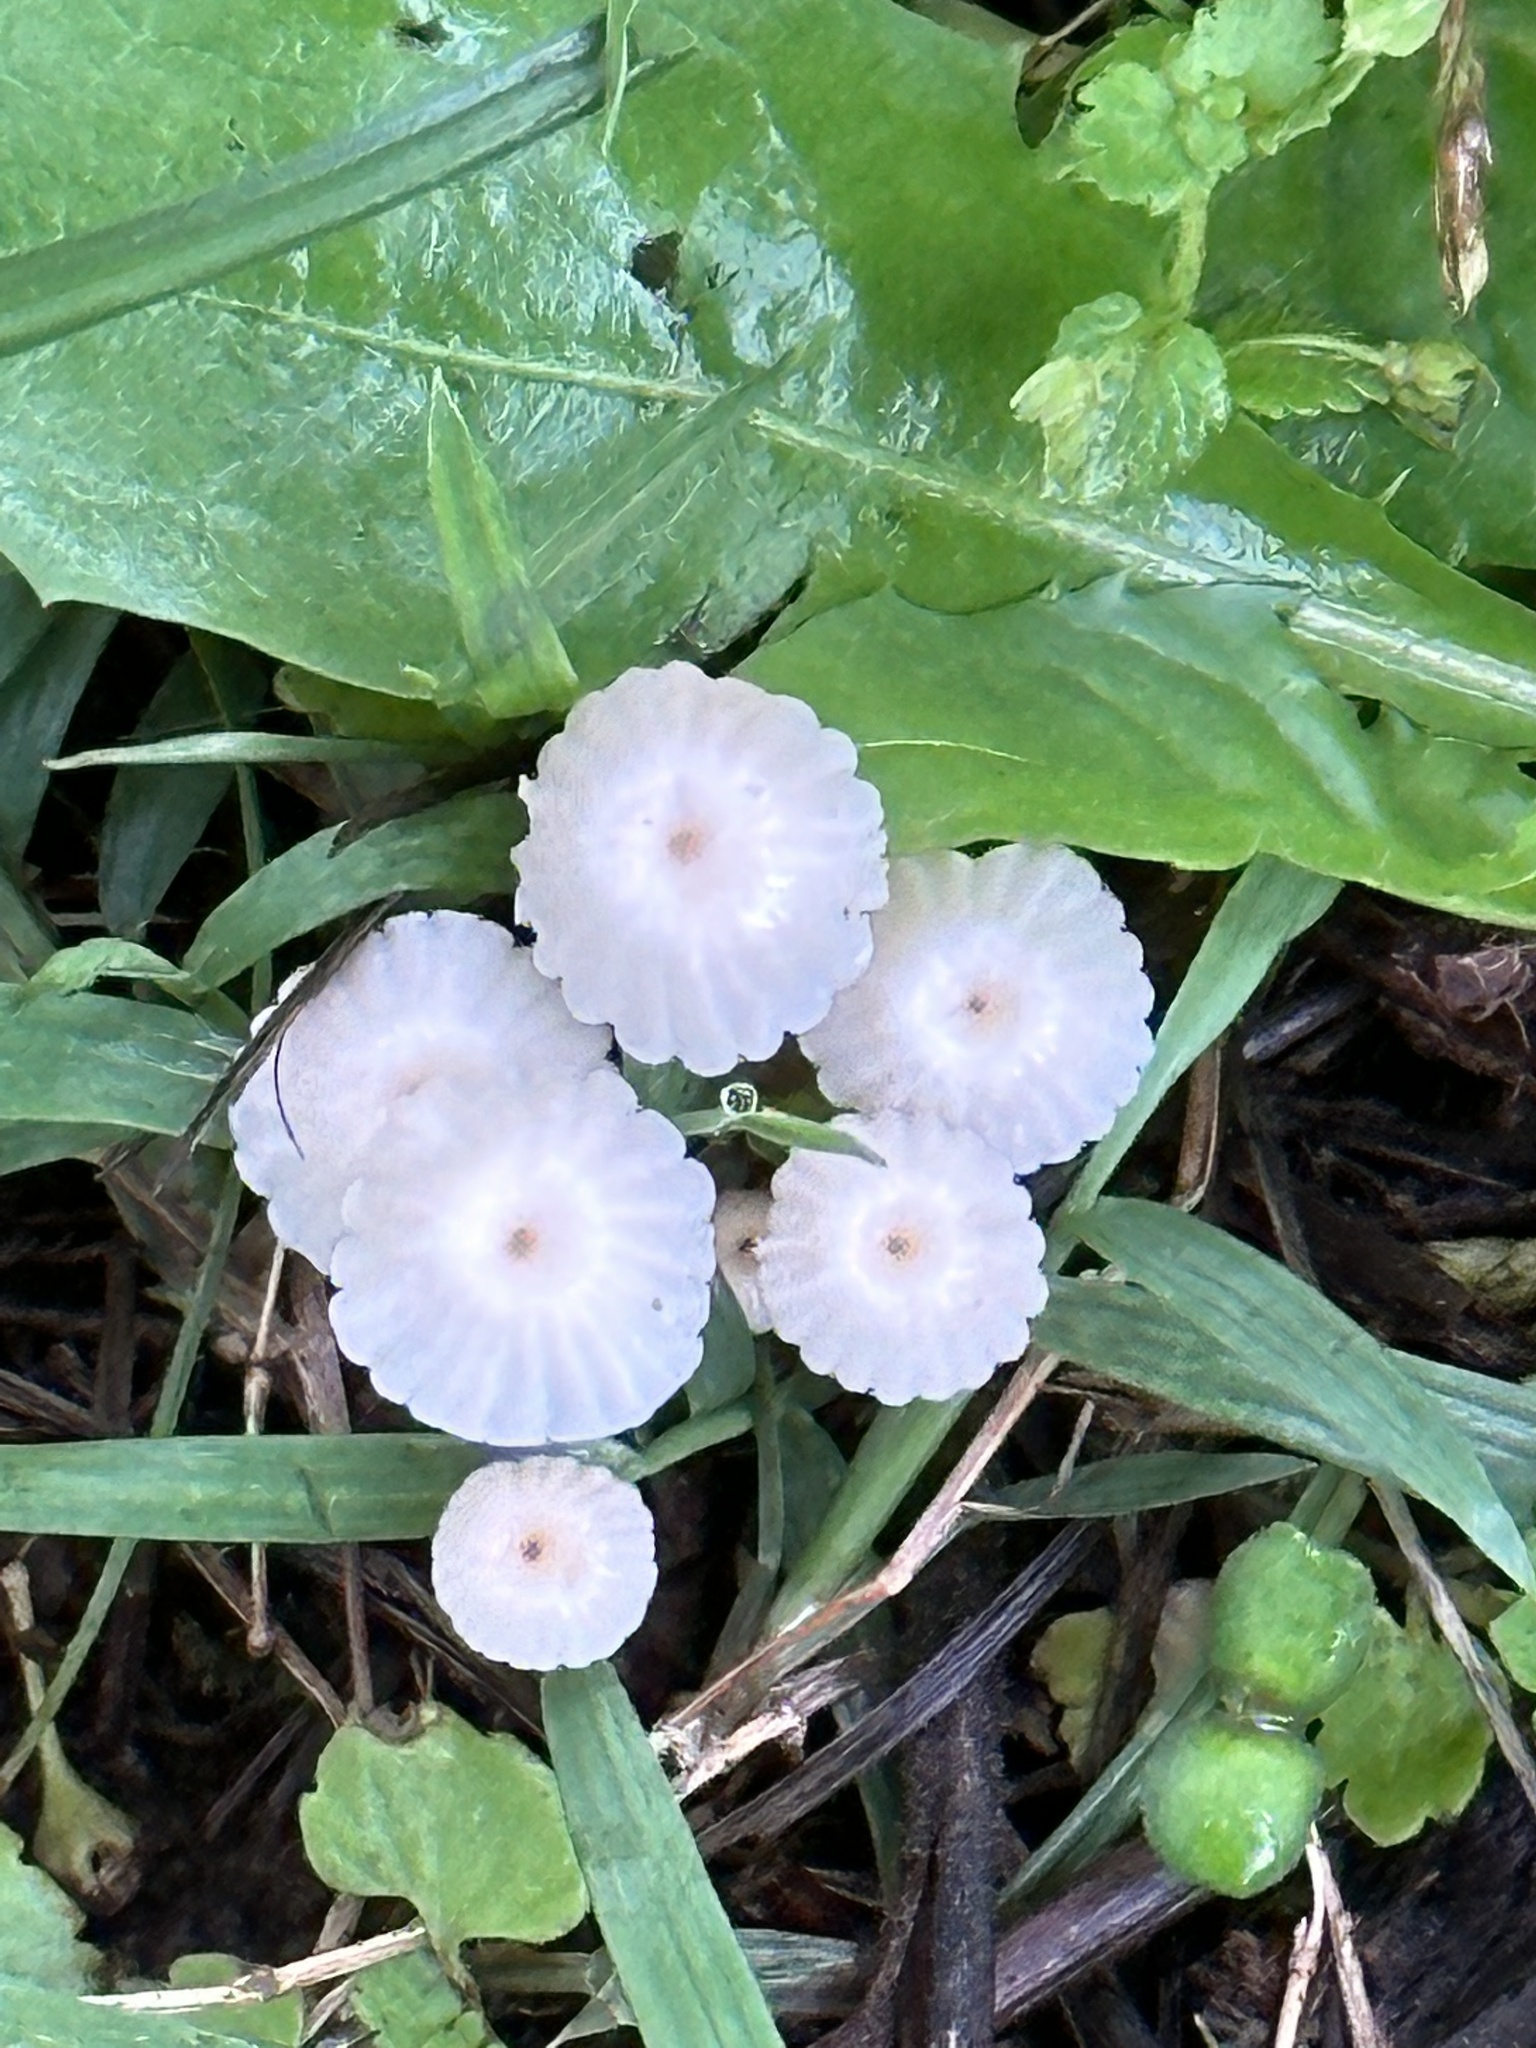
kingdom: Fungi
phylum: Basidiomycota
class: Agaricomycetes
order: Agaricales
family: Marasmiaceae
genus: Marasmius
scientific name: Marasmius rotula
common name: Collared parachute
